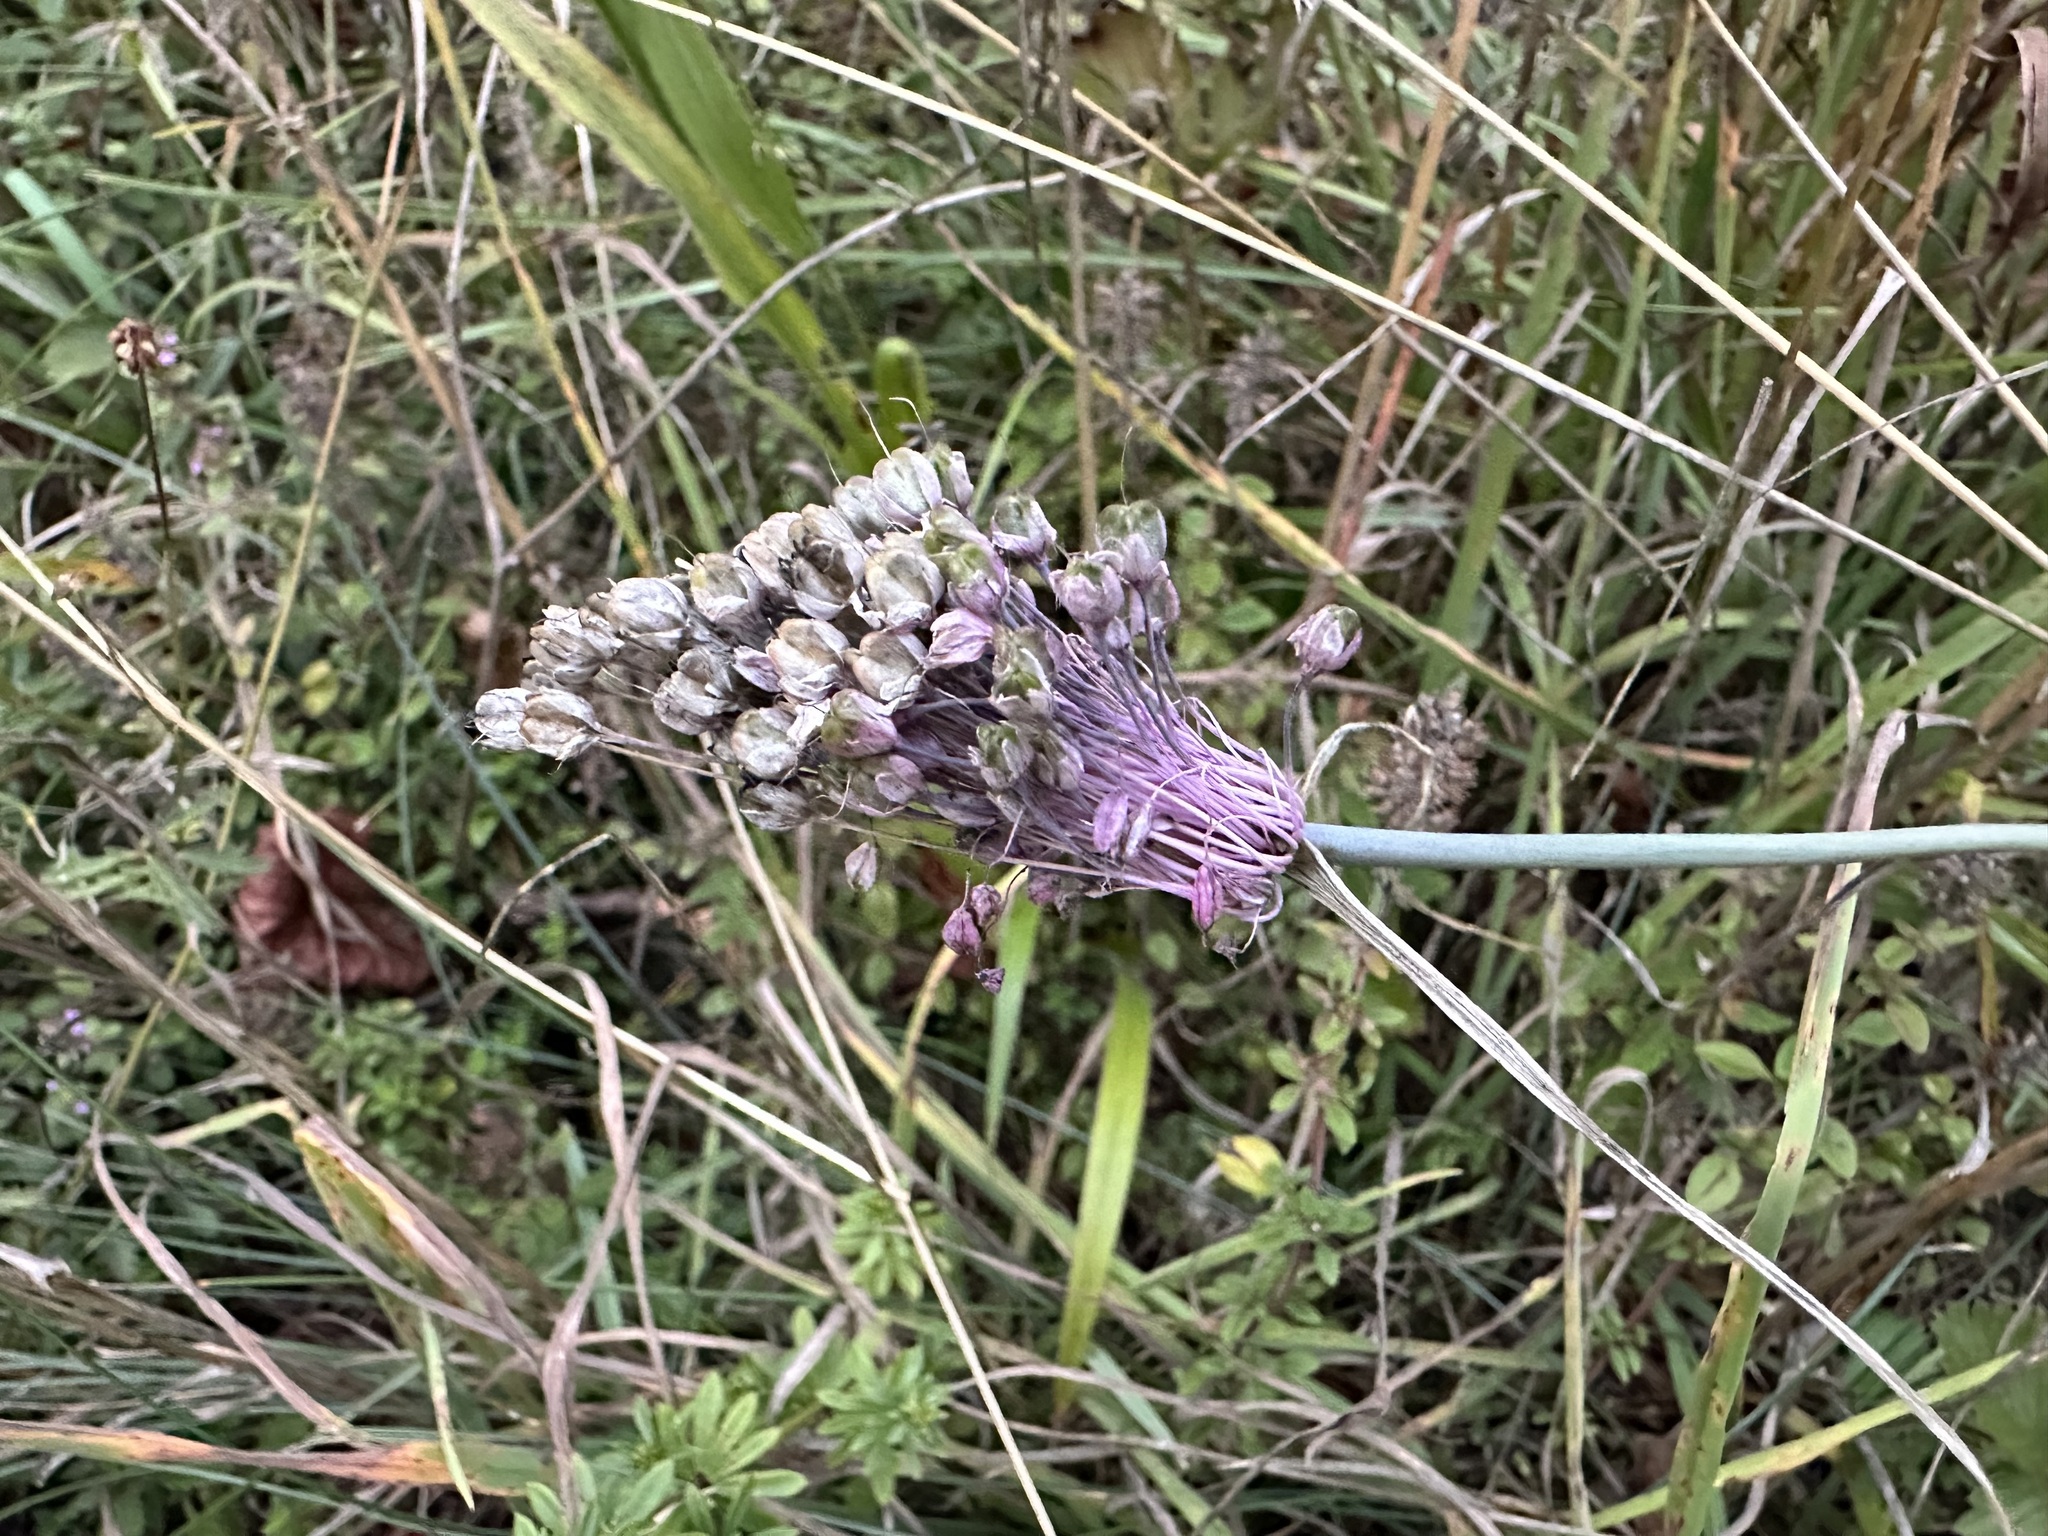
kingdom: Plantae
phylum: Tracheophyta
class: Liliopsida
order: Asparagales
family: Amaryllidaceae
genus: Allium
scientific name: Allium carinatum
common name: Keeled garlic
